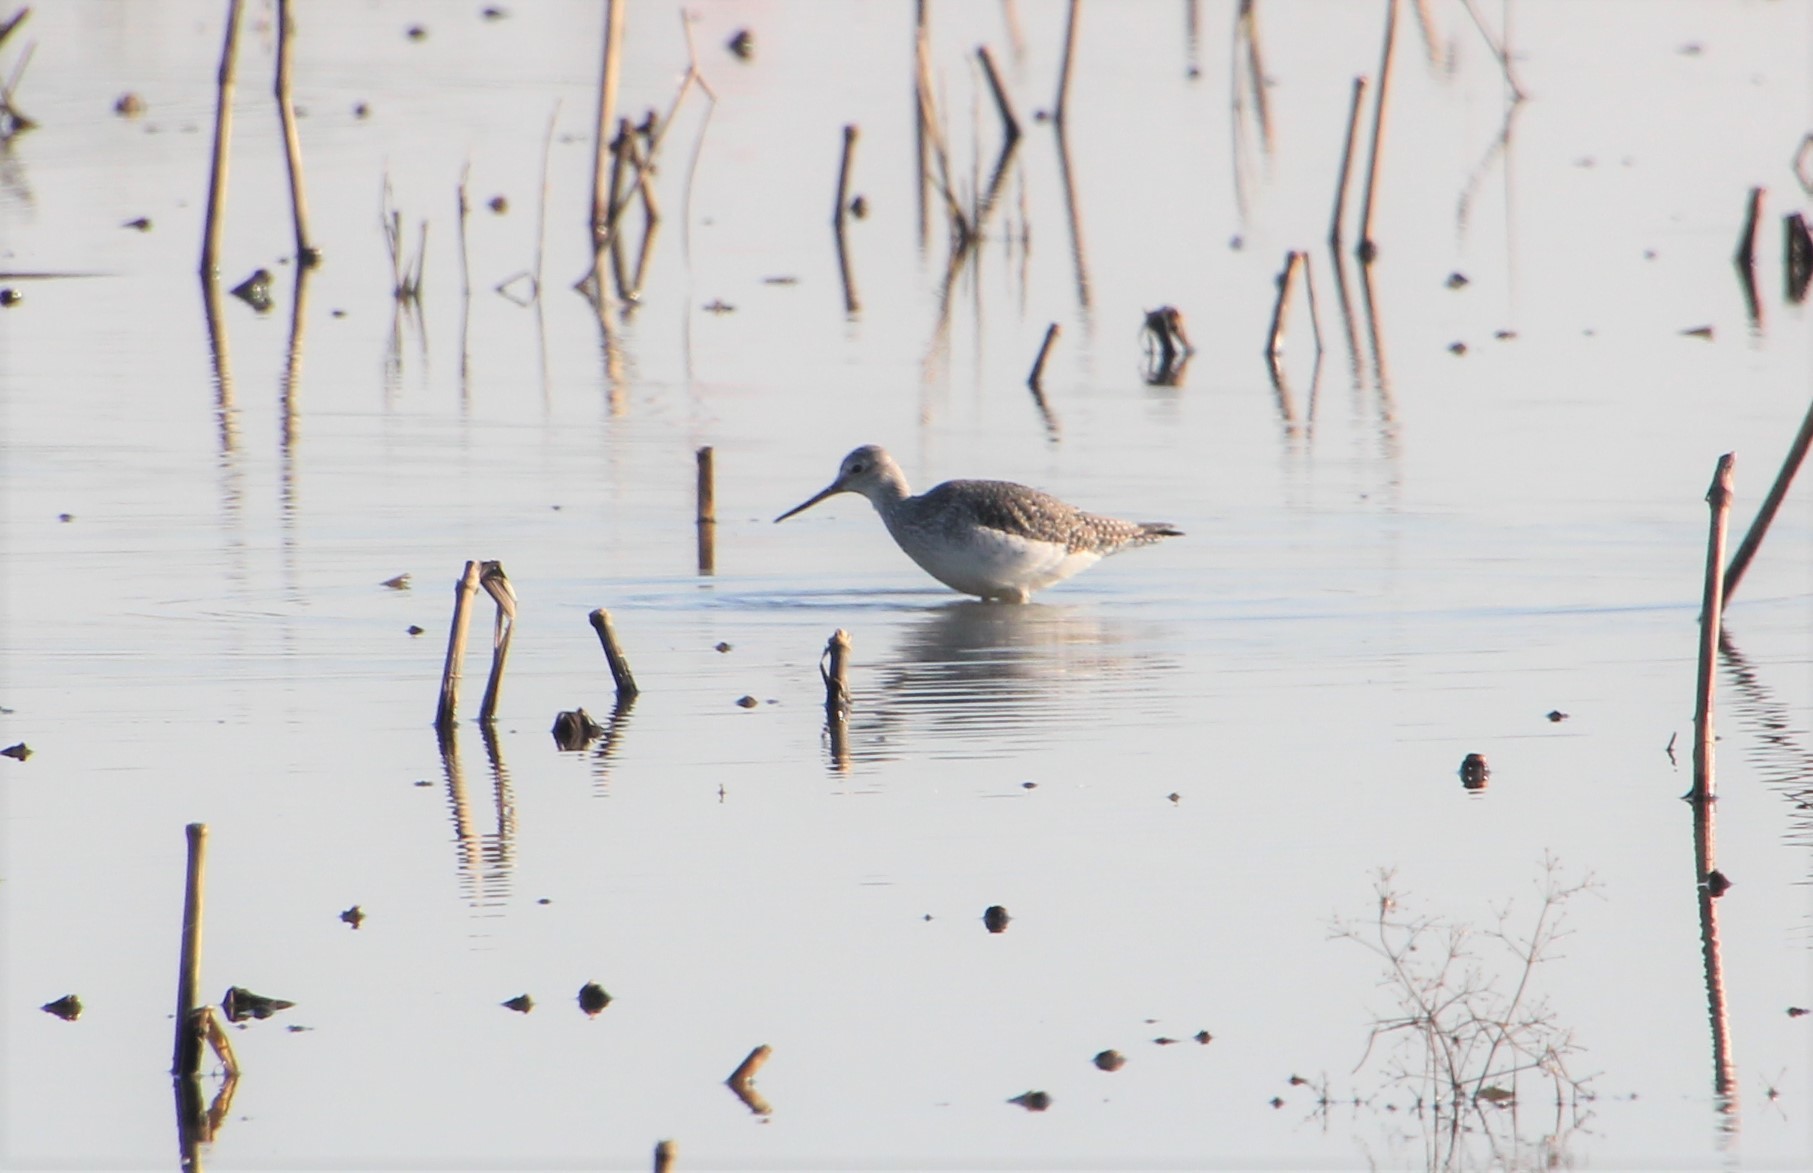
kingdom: Animalia
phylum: Chordata
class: Aves
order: Charadriiformes
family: Scolopacidae
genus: Tringa
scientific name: Tringa melanoleuca
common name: Greater yellowlegs
